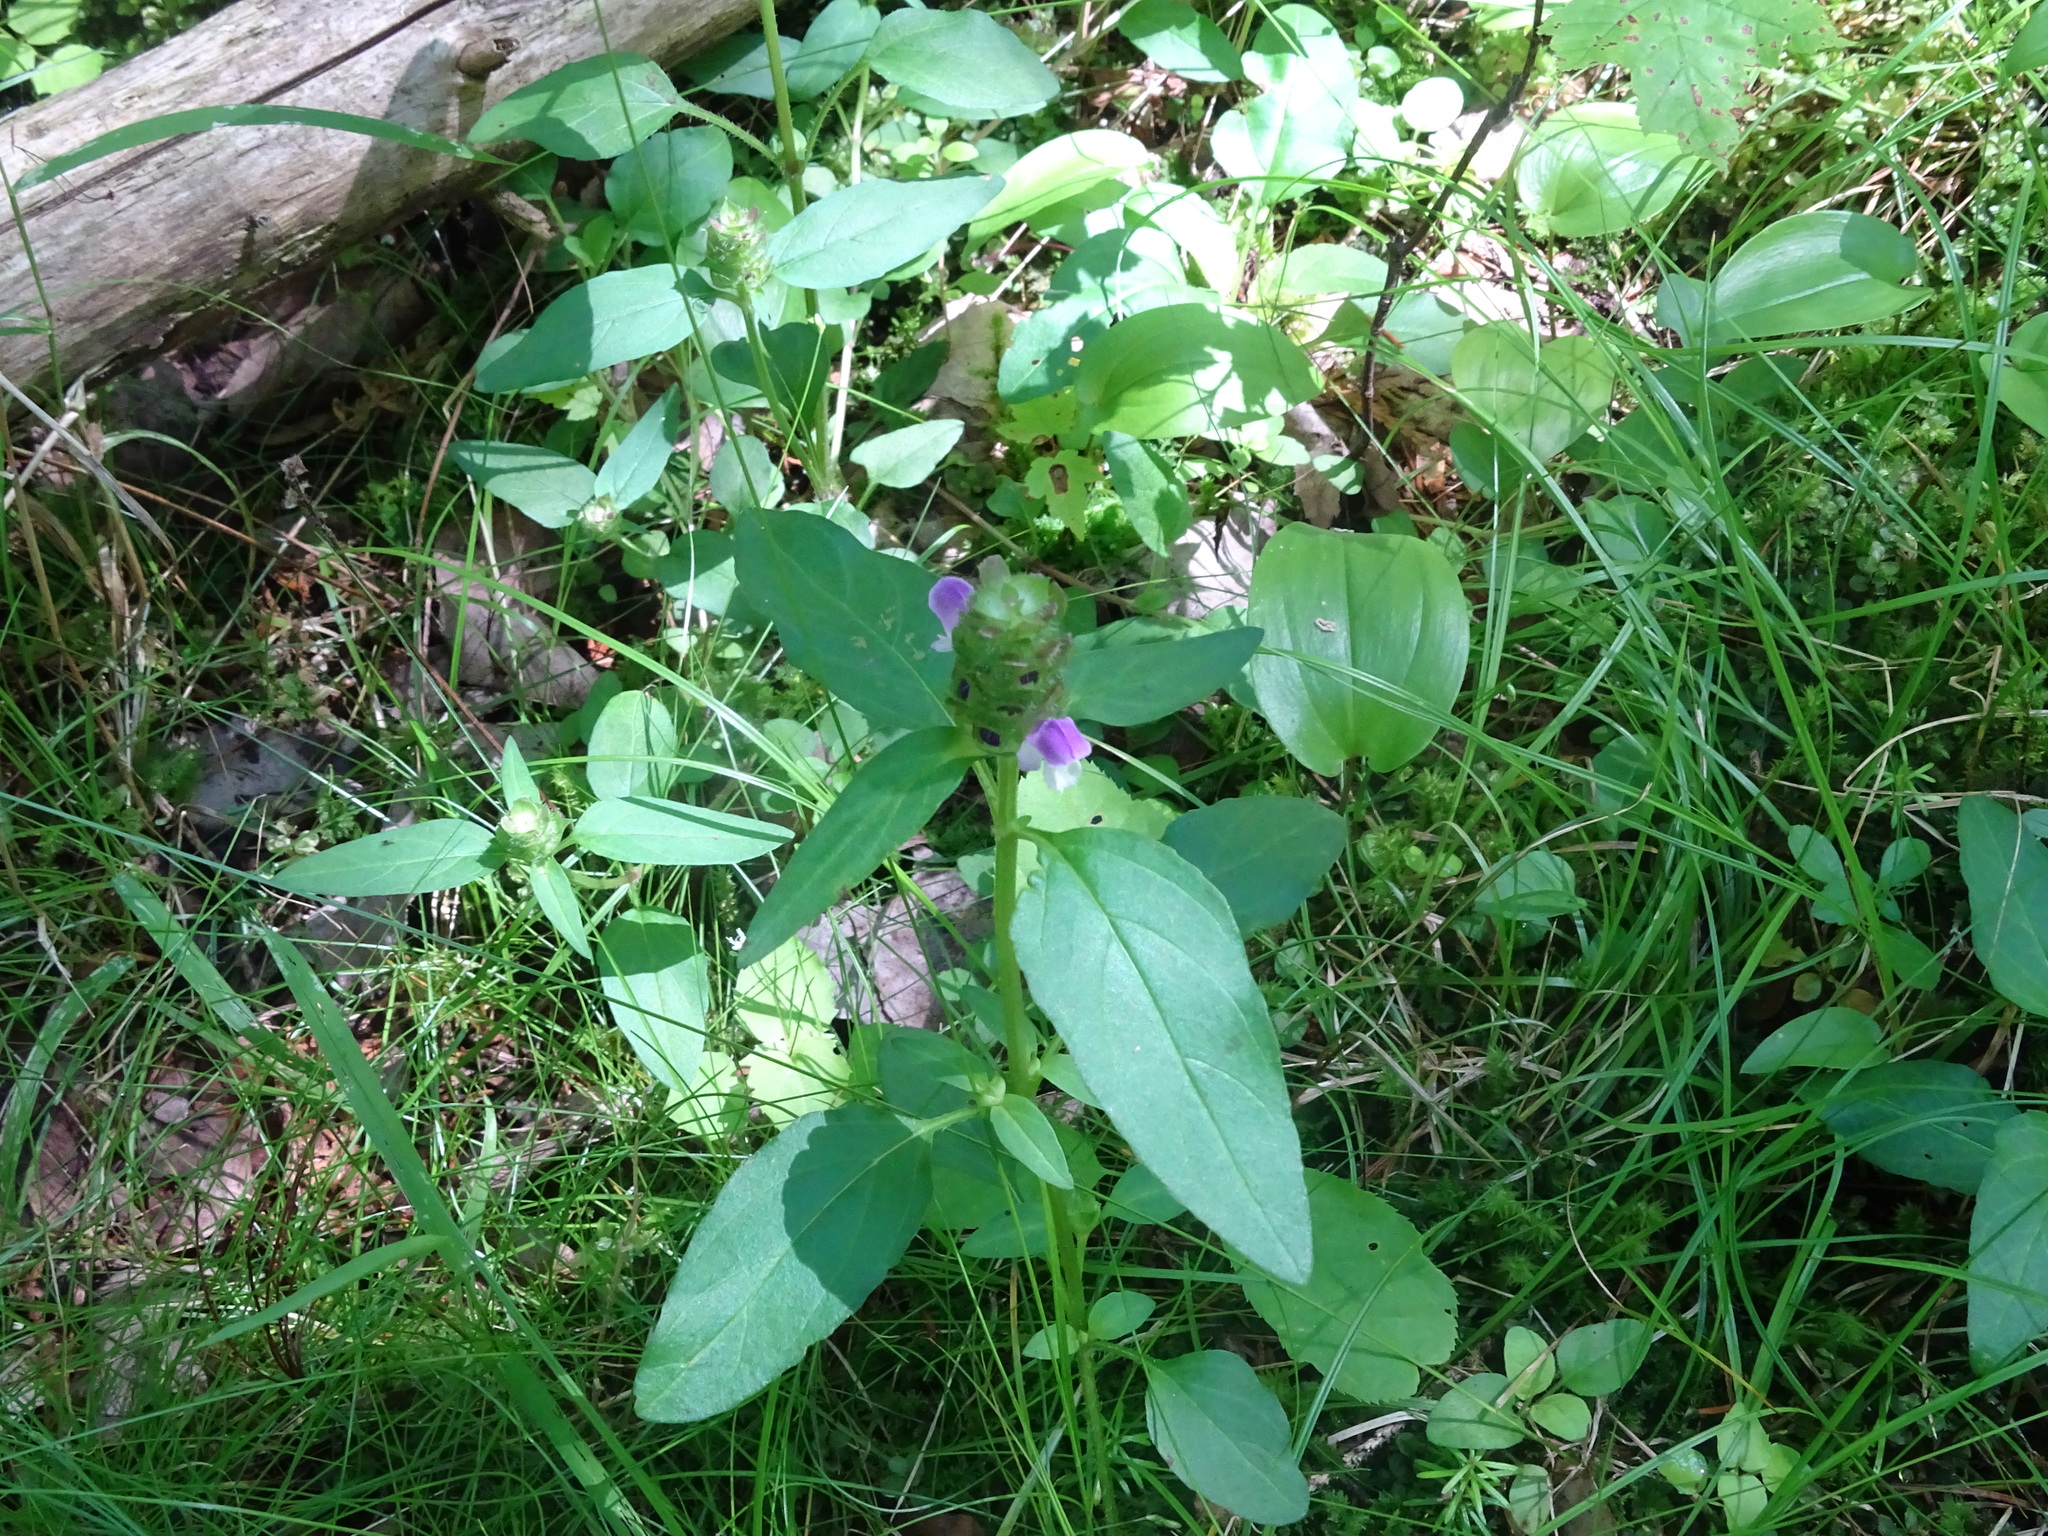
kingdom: Plantae
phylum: Tracheophyta
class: Magnoliopsida
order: Lamiales
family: Lamiaceae
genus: Prunella
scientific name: Prunella vulgaris
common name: Heal-all
